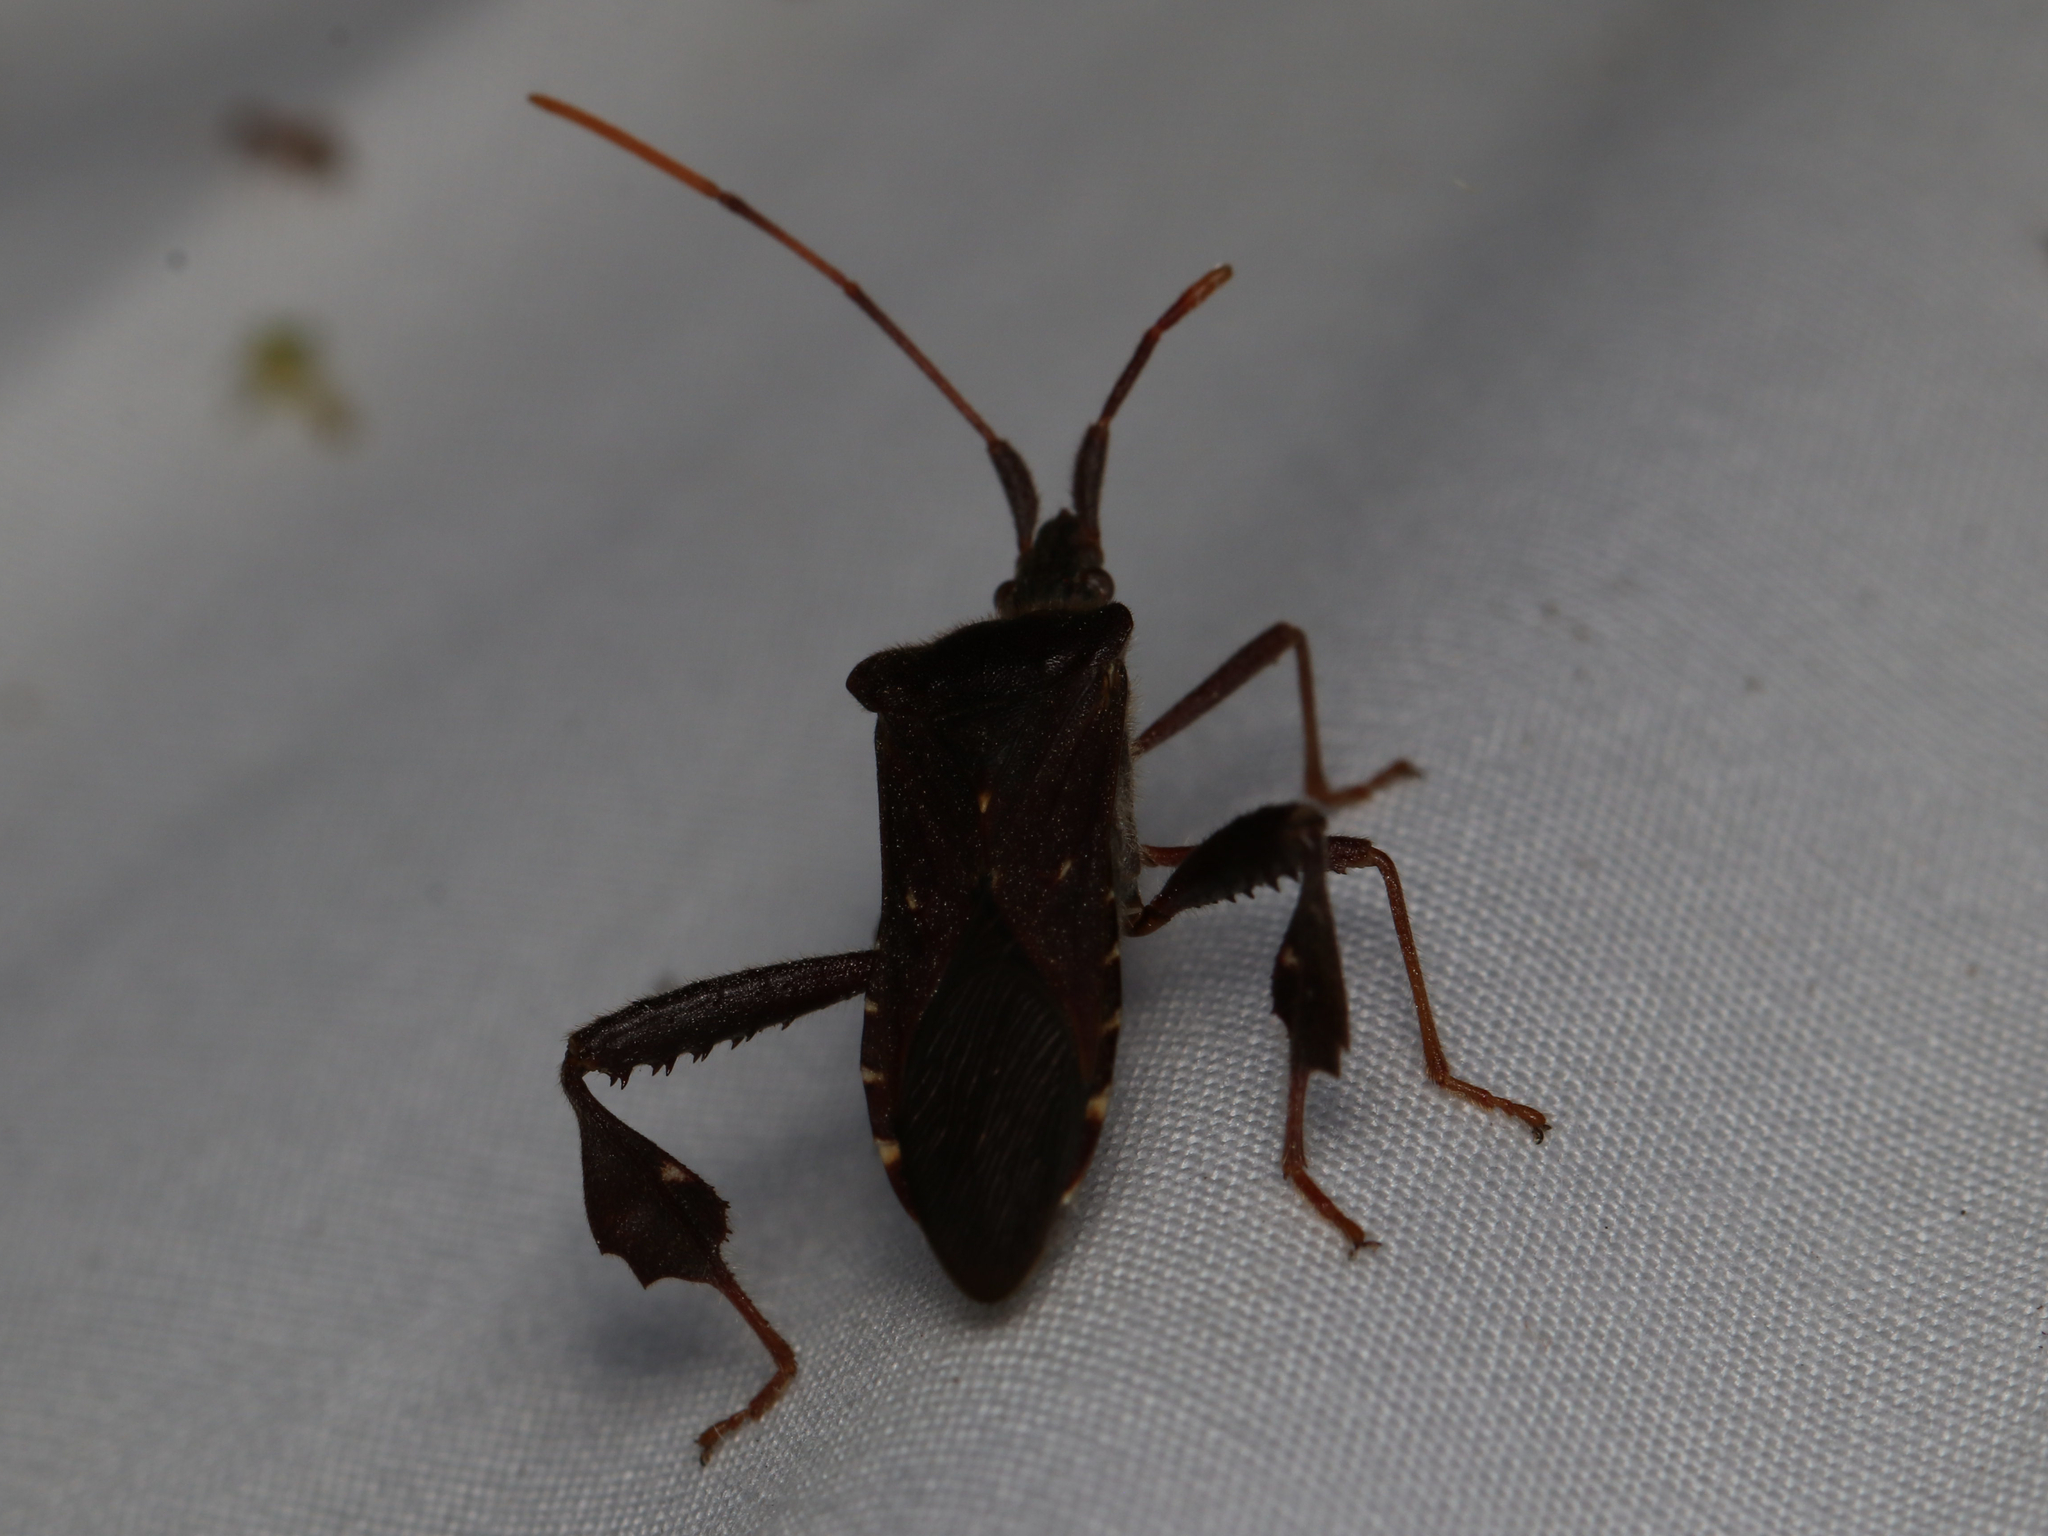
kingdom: Animalia
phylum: Arthropoda
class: Insecta
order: Hemiptera
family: Coreidae
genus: Leptoglossus
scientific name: Leptoglossus oppositus
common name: Northern leaf-footed bug
